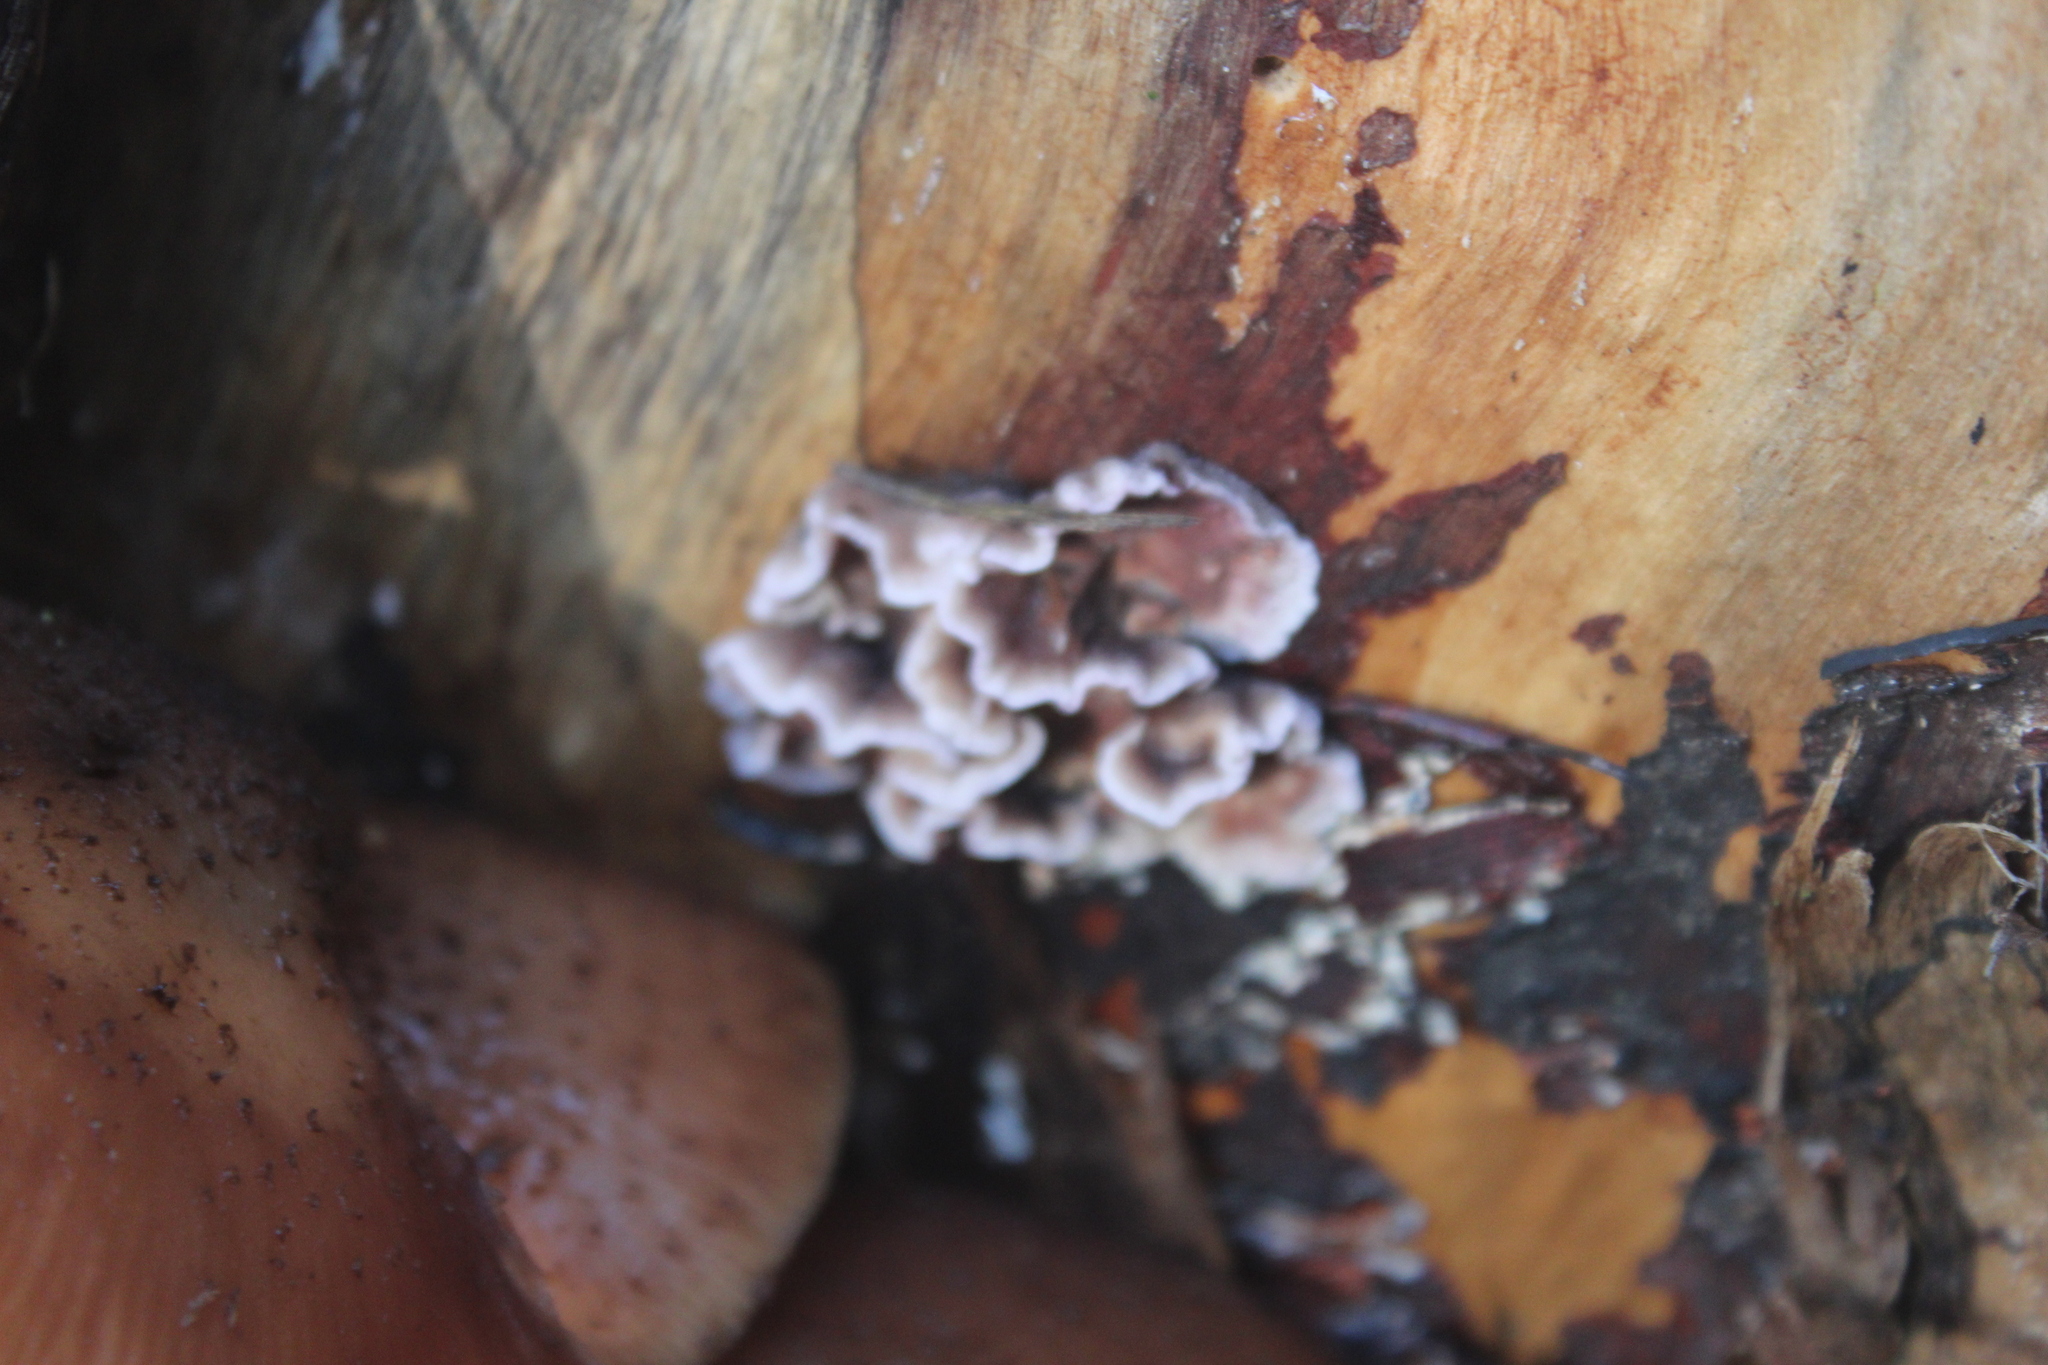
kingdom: Fungi
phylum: Basidiomycota
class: Agaricomycetes
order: Agaricales
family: Cyphellaceae
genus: Chondrostereum
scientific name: Chondrostereum purpureum
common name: Silver leaf disease
